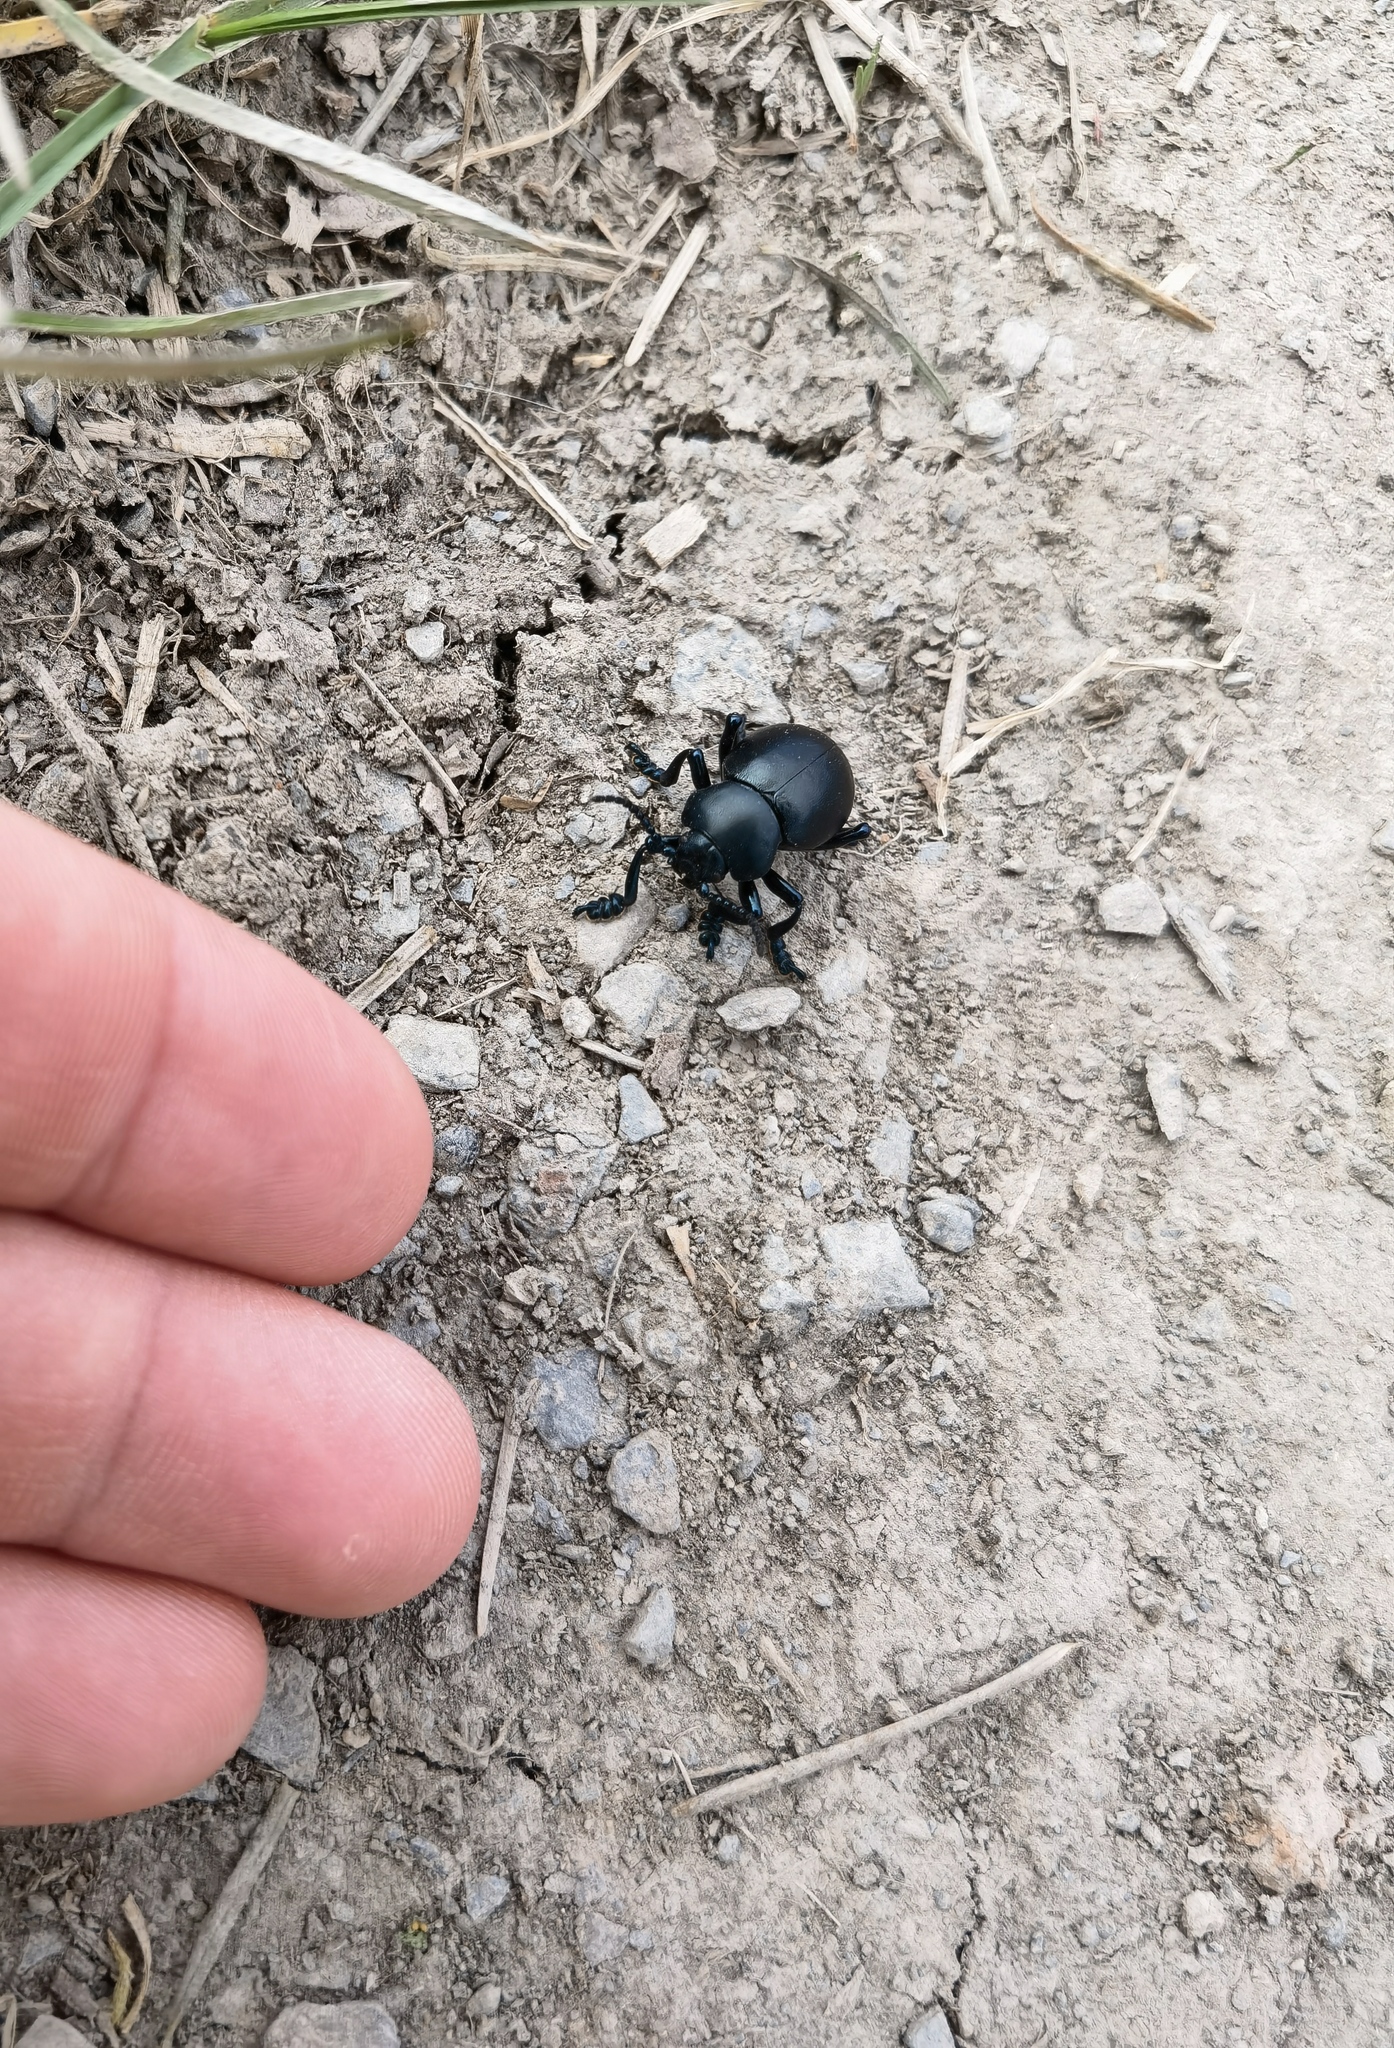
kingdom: Animalia
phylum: Arthropoda
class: Insecta
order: Coleoptera
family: Chrysomelidae
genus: Timarcha
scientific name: Timarcha tenebricosa
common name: Bloody-nosed beetle
